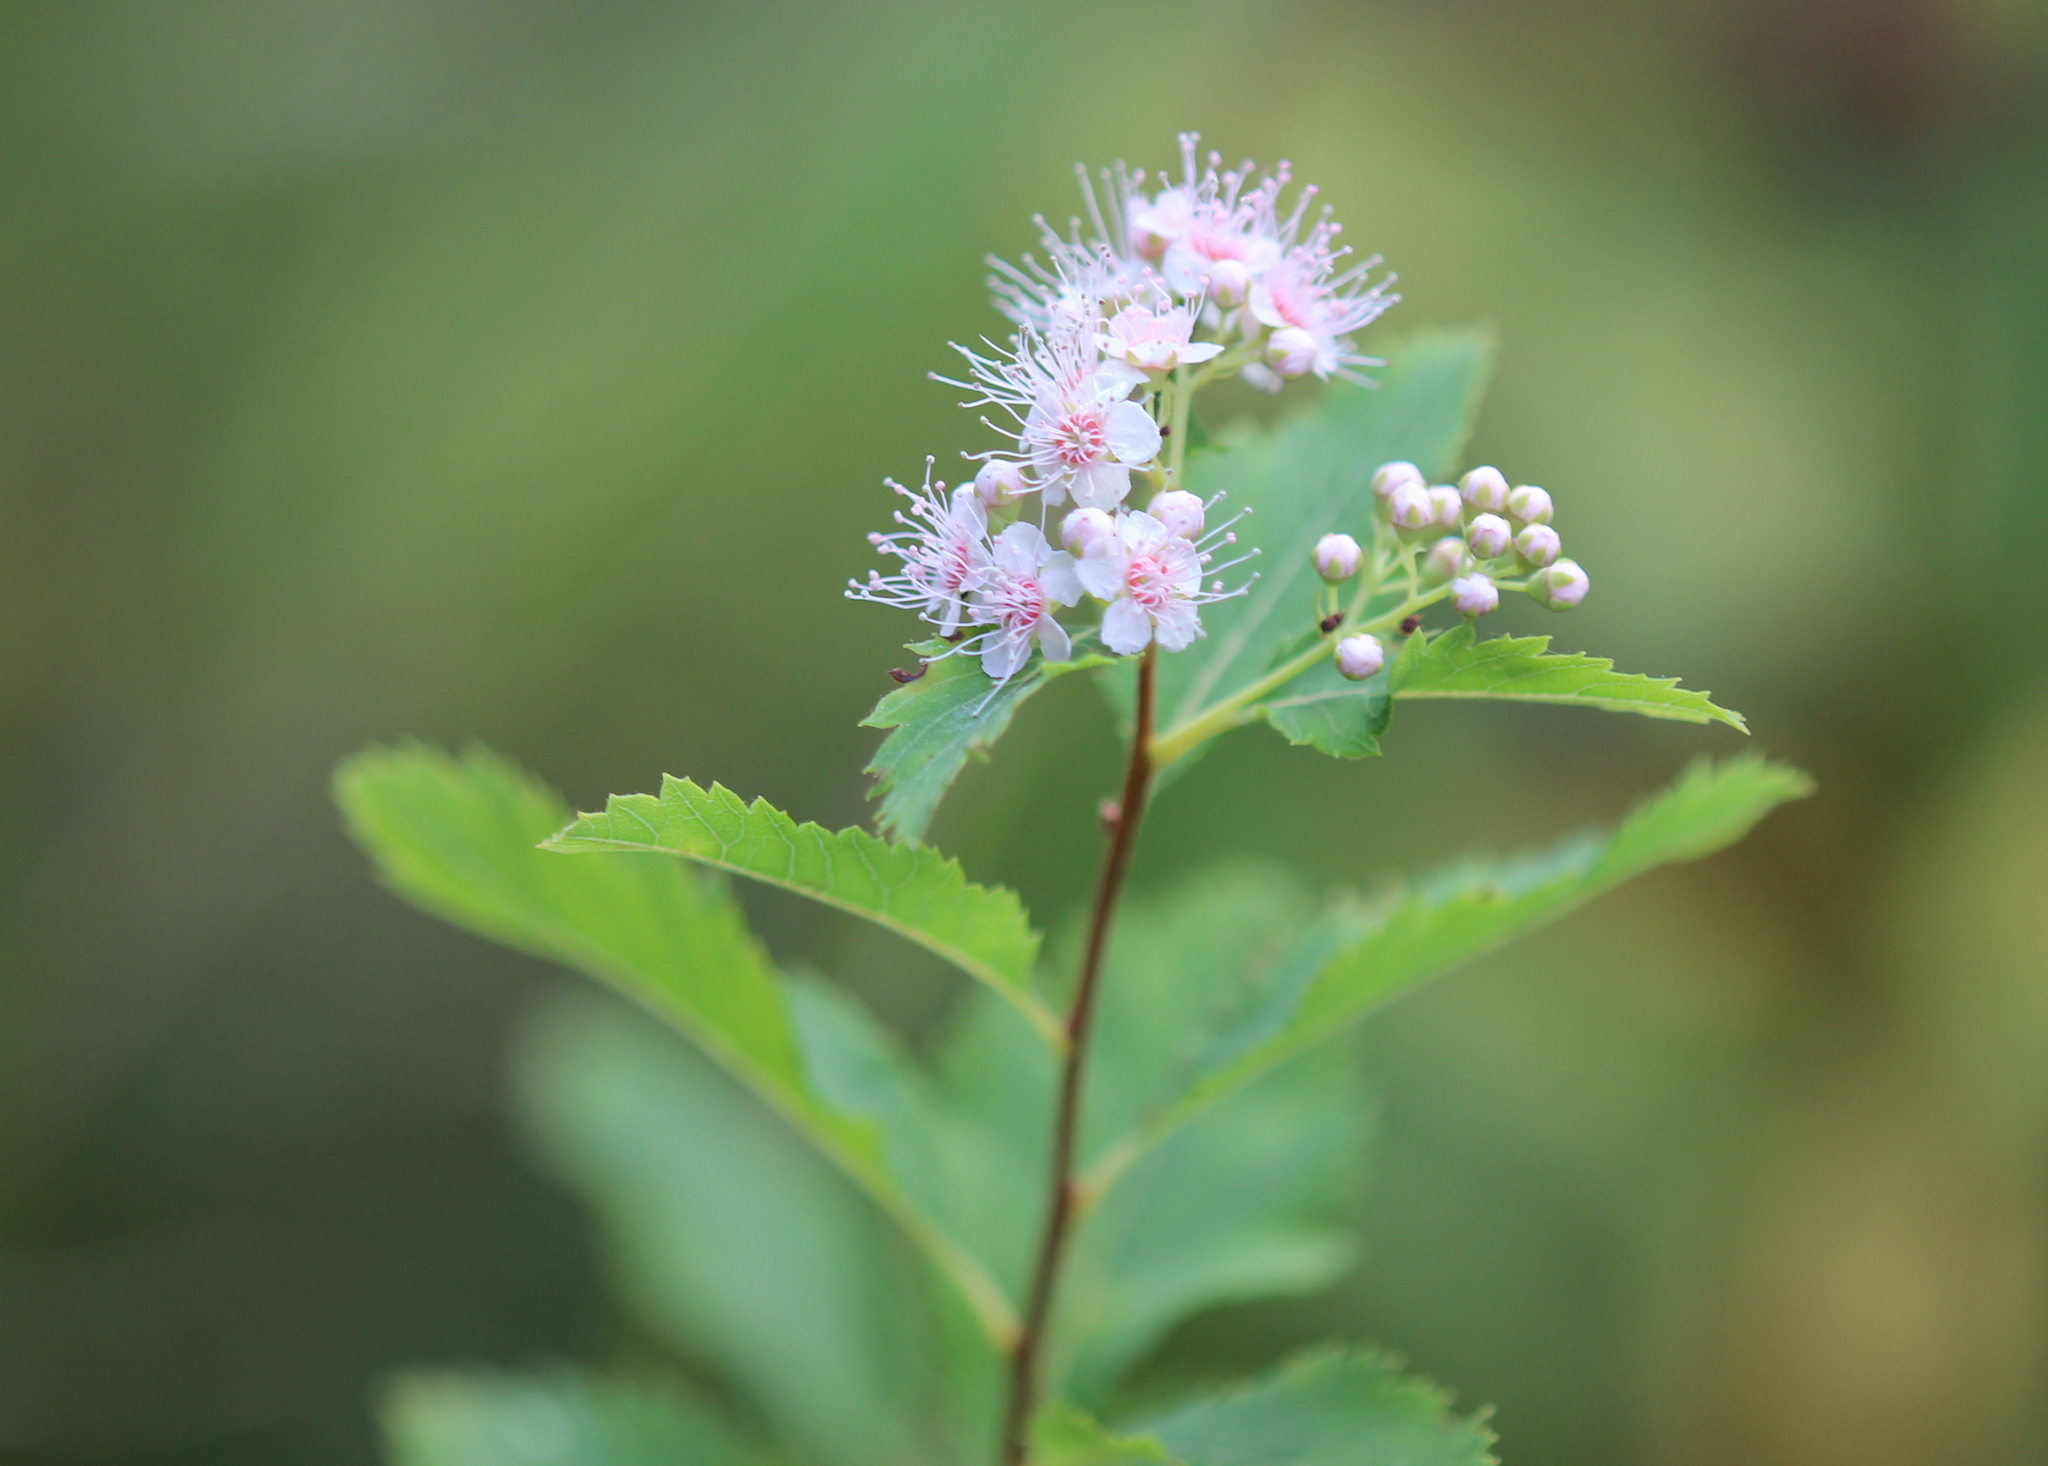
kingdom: Plantae
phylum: Tracheophyta
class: Magnoliopsida
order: Rosales
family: Rosaceae
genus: Spiraea
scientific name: Spiraea alba
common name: Pale bridewort
